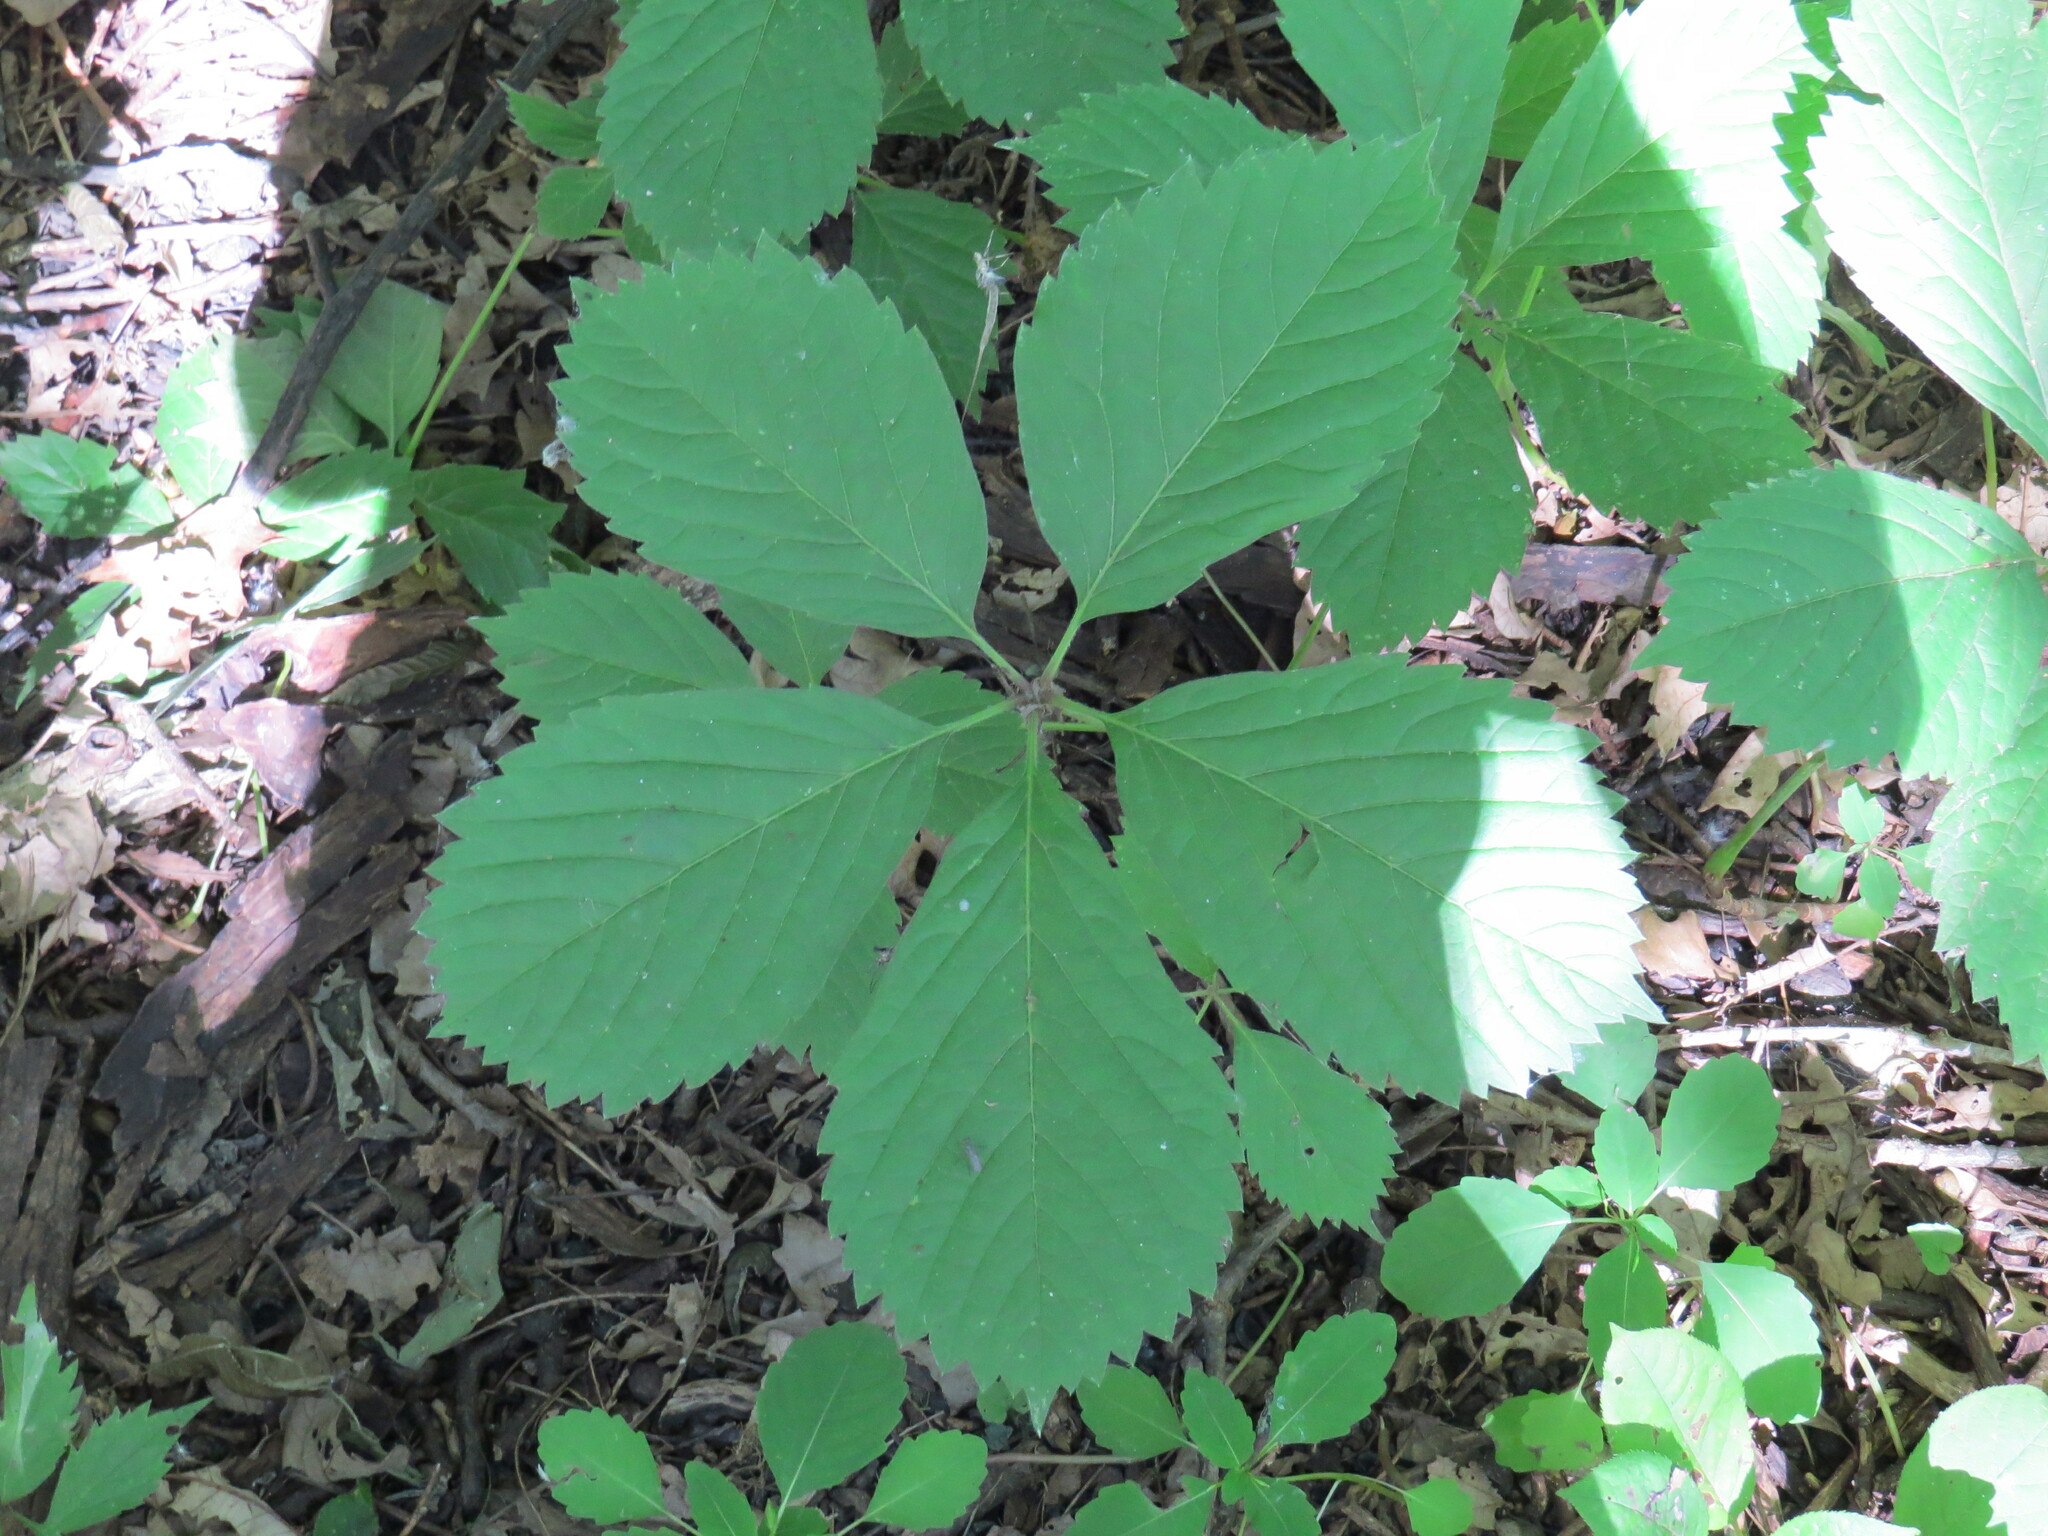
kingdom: Plantae
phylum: Tracheophyta
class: Magnoliopsida
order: Vitales
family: Vitaceae
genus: Parthenocissus
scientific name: Parthenocissus quinquefolia
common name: Virginia-creeper
